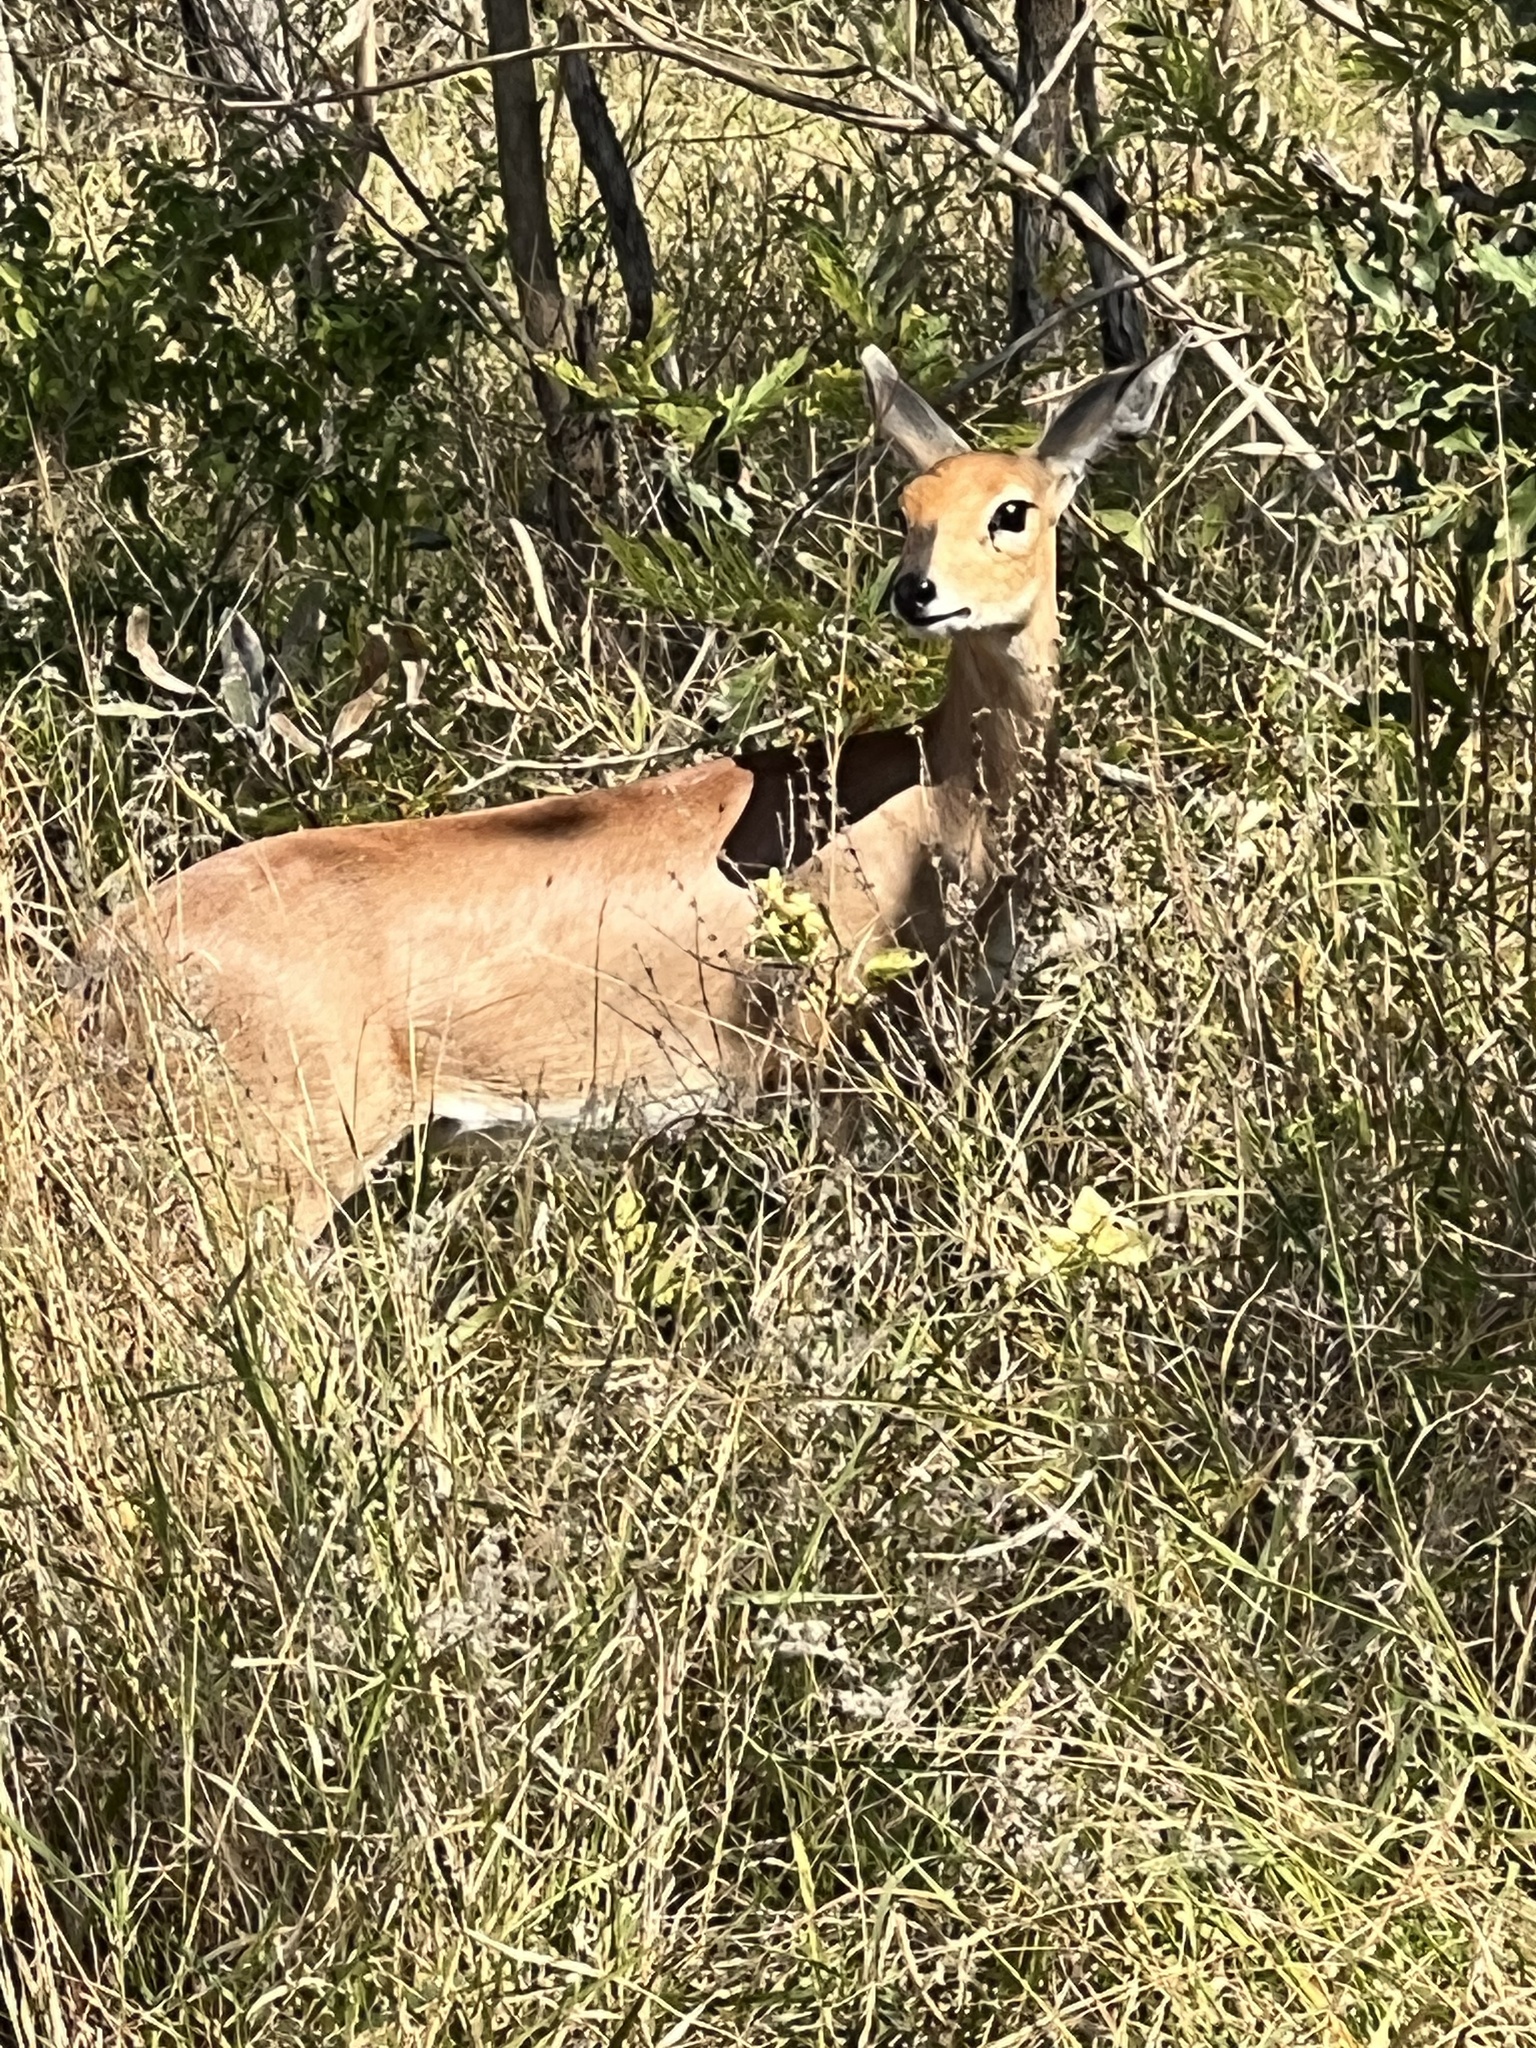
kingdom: Animalia
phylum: Chordata
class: Mammalia
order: Artiodactyla
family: Bovidae
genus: Raphicerus
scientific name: Raphicerus campestris
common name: Steenbok
